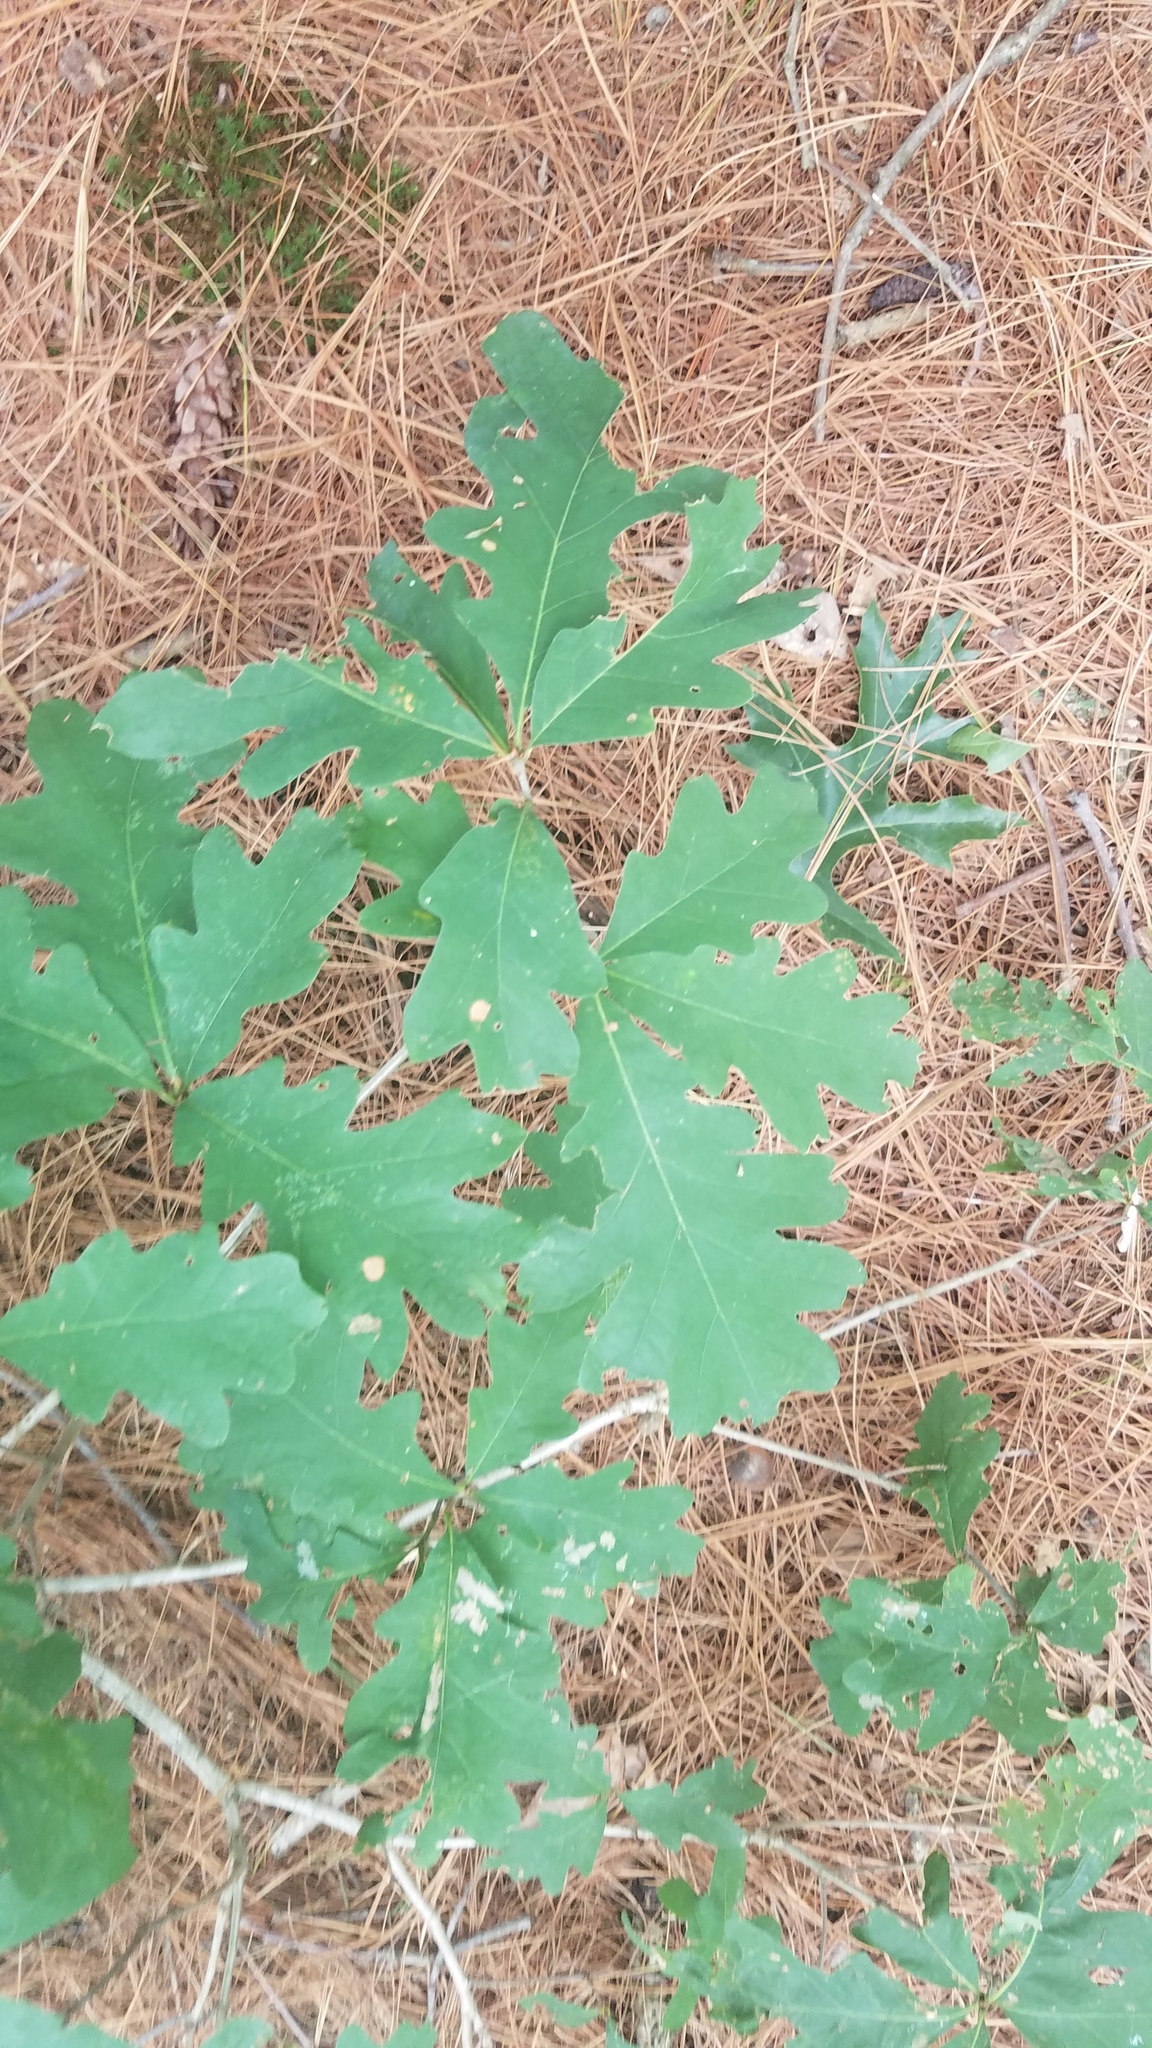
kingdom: Plantae
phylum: Tracheophyta
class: Magnoliopsida
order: Fagales
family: Fagaceae
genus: Quercus
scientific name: Quercus alba
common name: White oak
